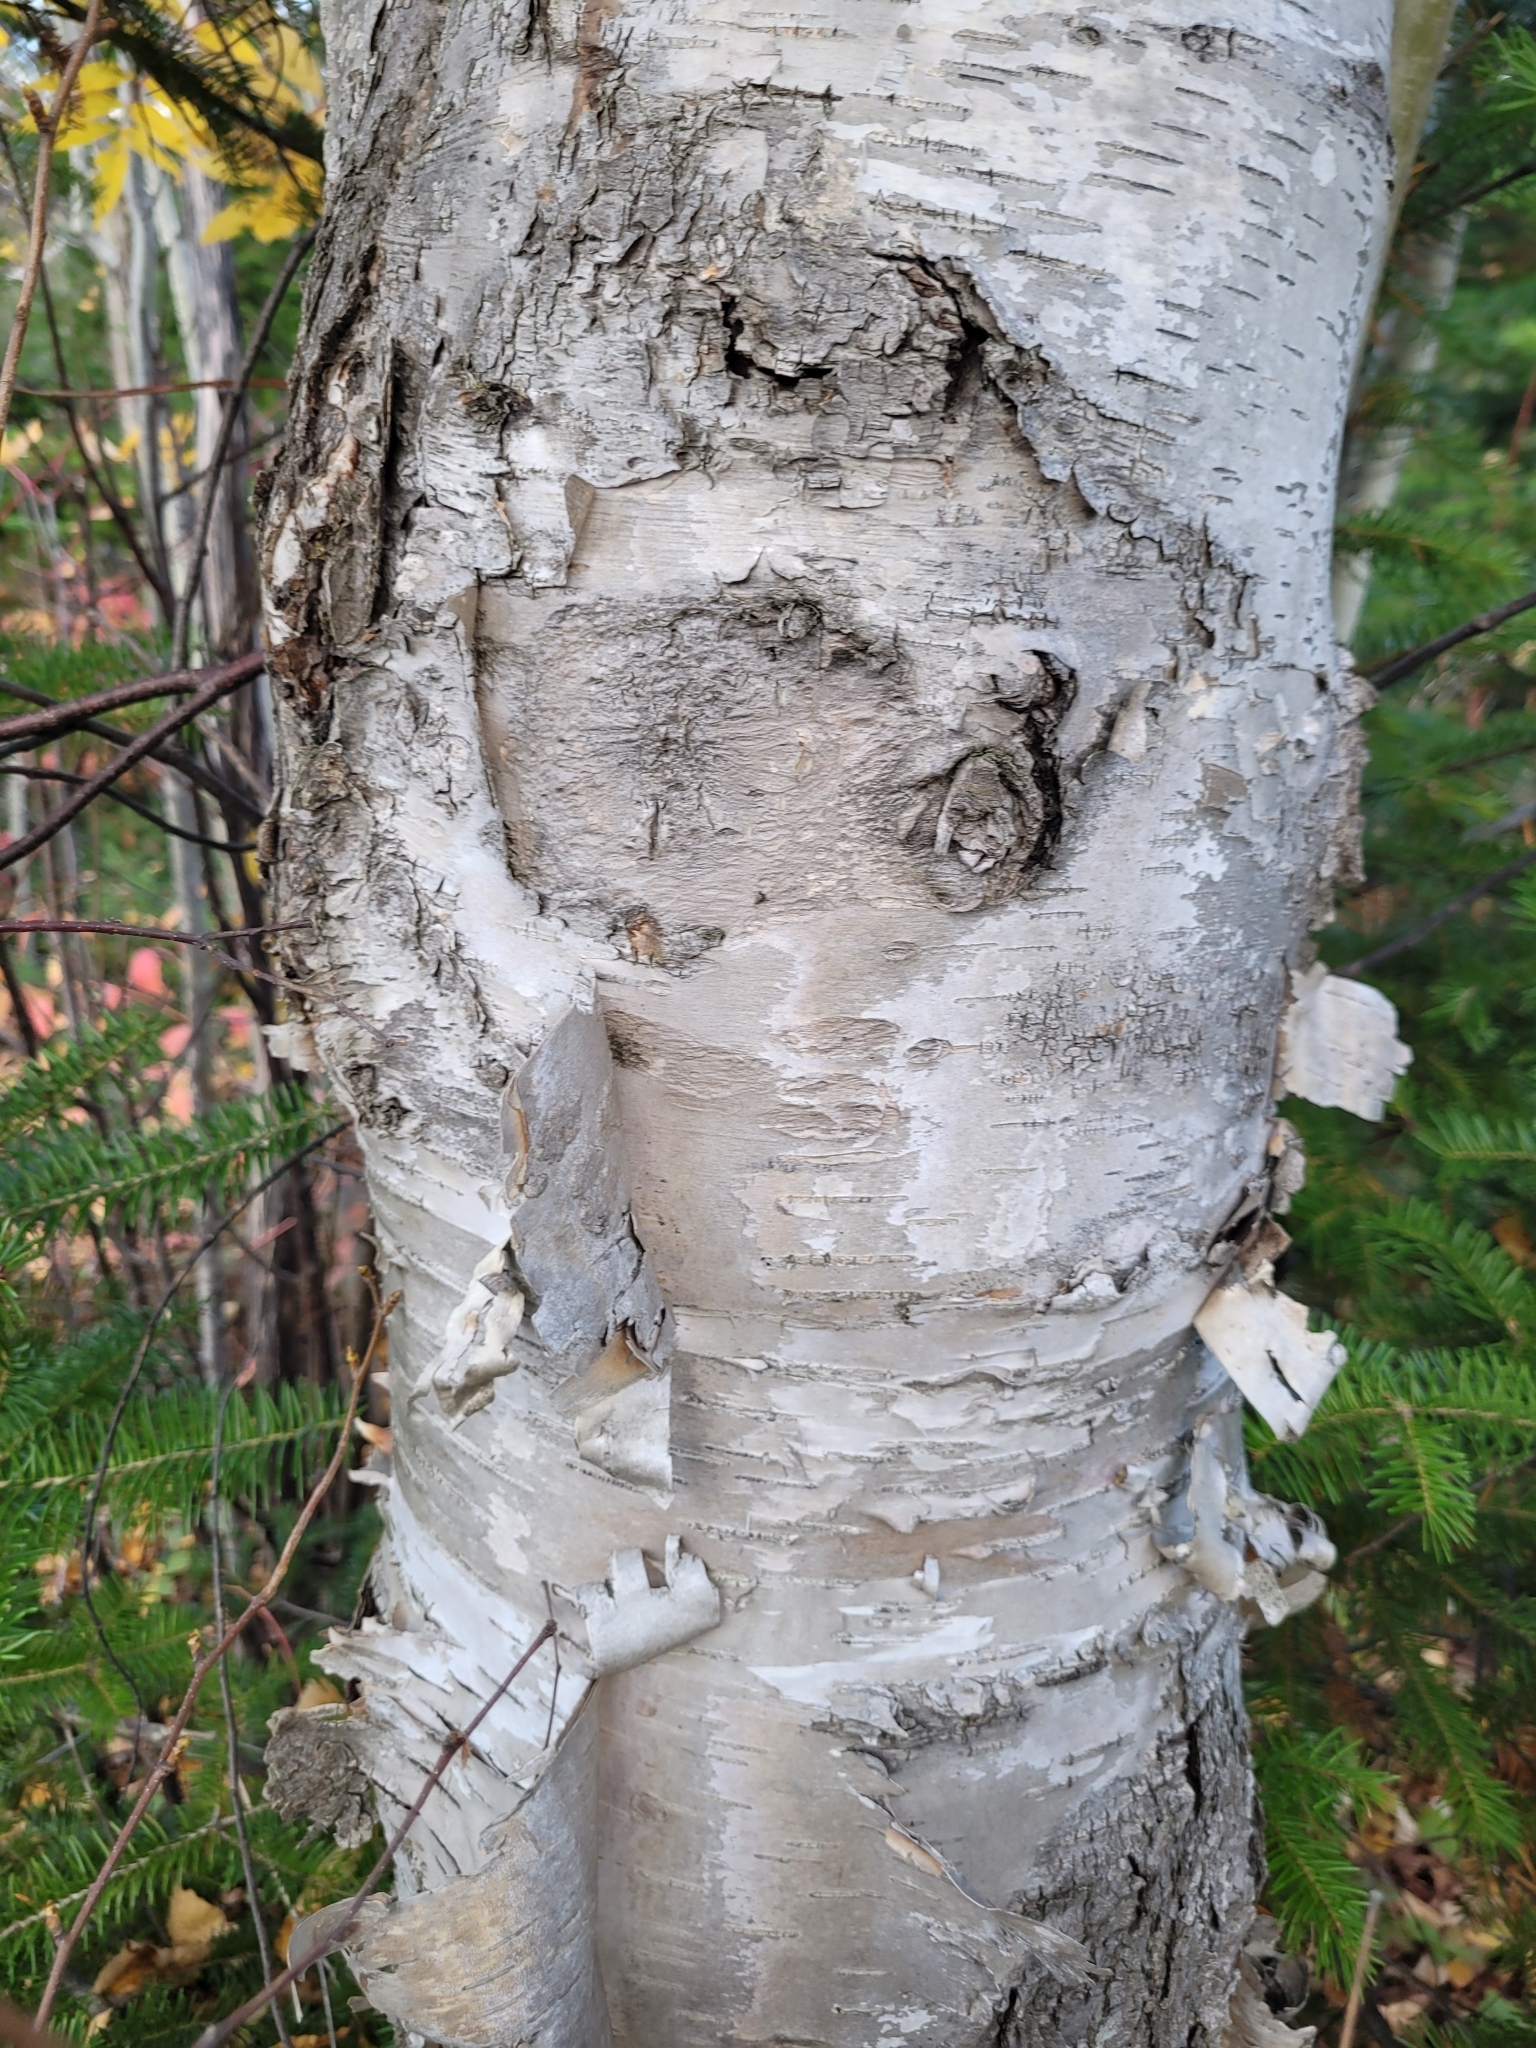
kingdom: Plantae
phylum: Tracheophyta
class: Magnoliopsida
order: Fagales
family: Betulaceae
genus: Betula
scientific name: Betula papyrifera
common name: Paper birch
